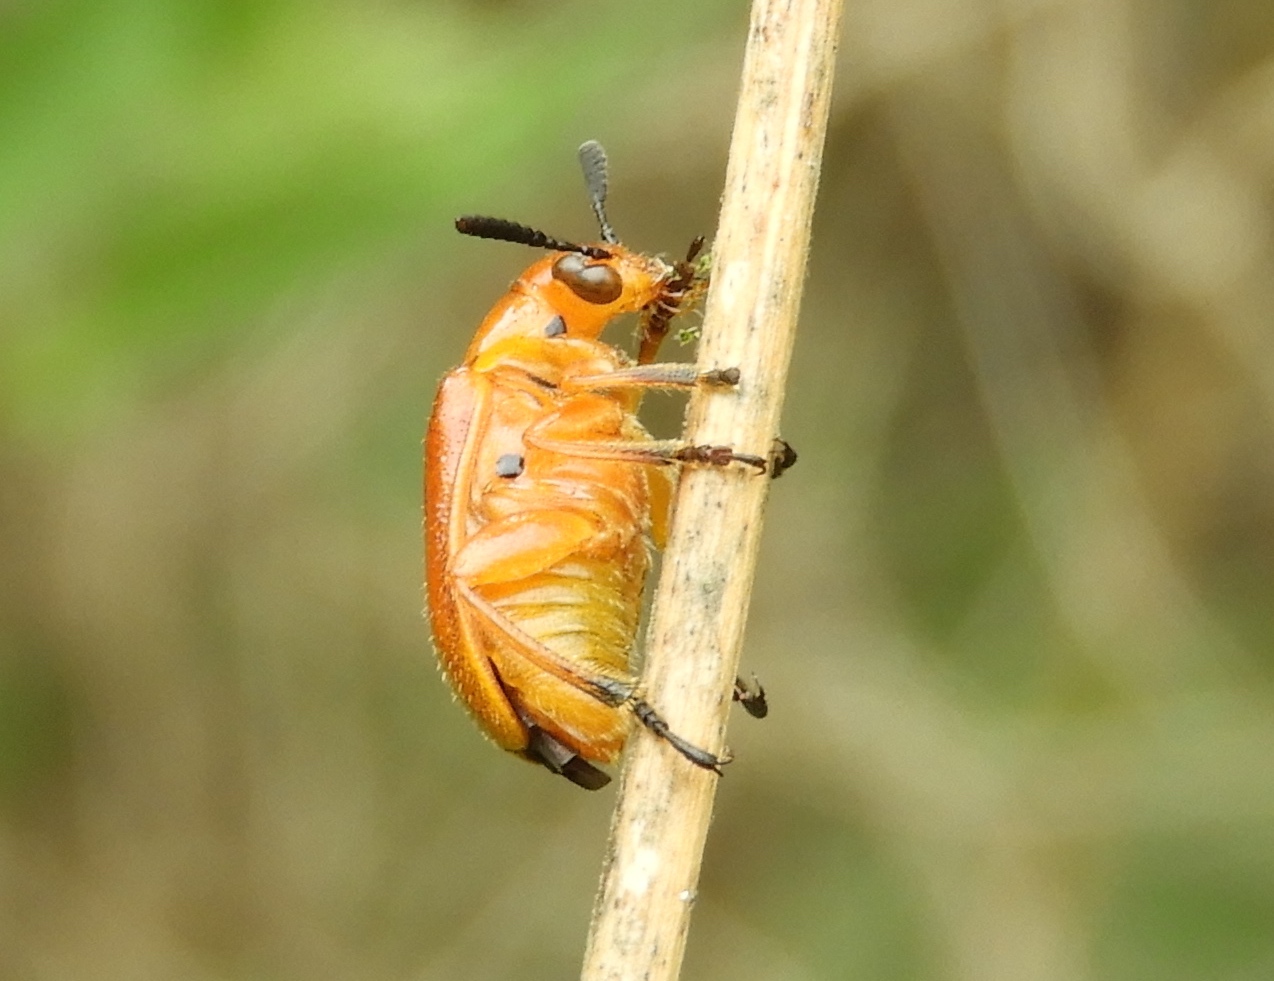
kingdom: Animalia
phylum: Arthropoda
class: Insecta
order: Coleoptera
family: Megalopodidae
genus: Agathomerus
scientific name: Agathomerus rufus
